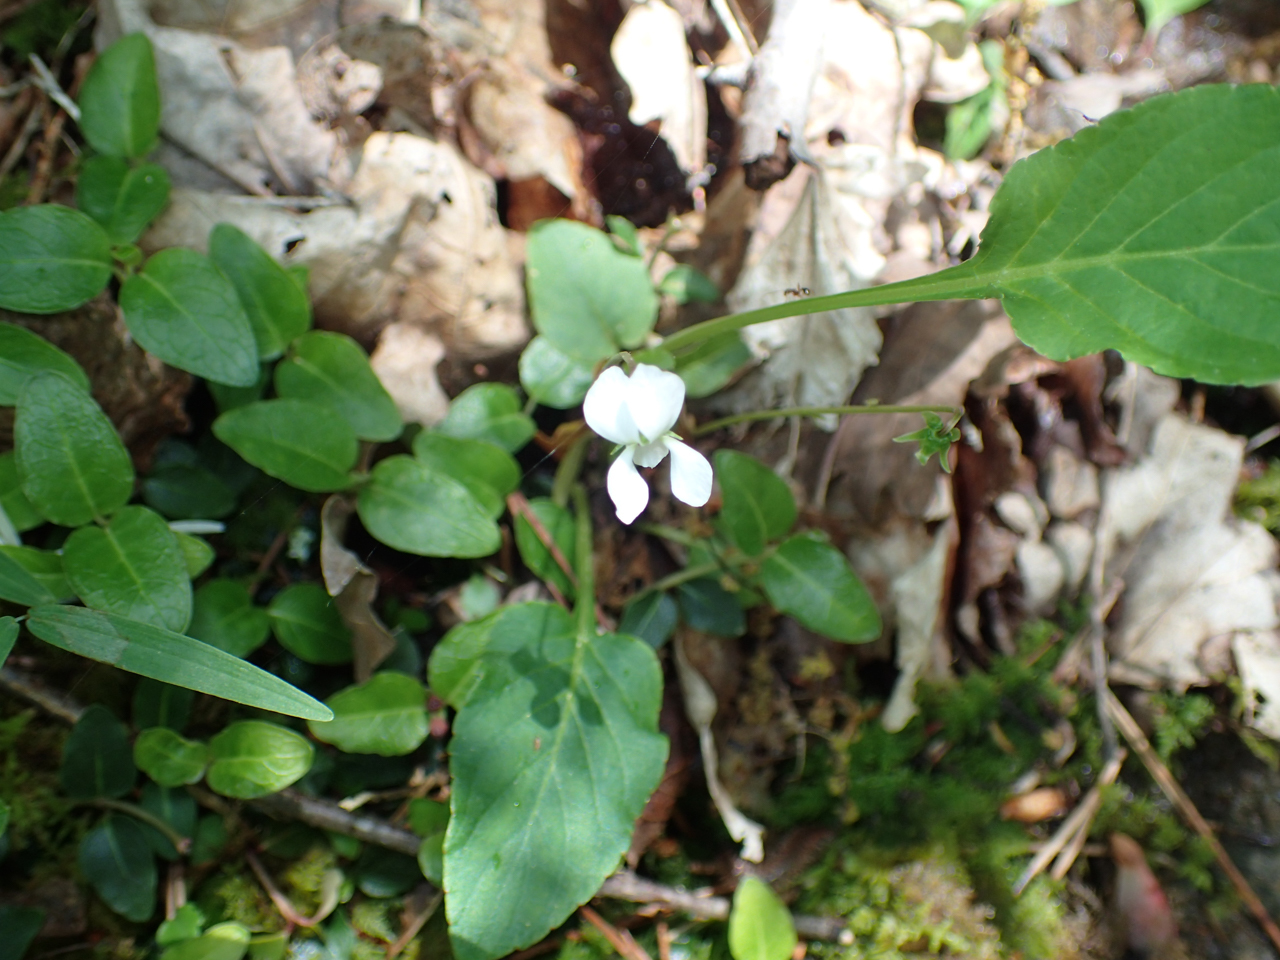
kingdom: Plantae
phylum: Tracheophyta
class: Magnoliopsida
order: Malpighiales
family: Violaceae
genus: Viola
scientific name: Viola primulifolia
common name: Primrose-leaf violet
